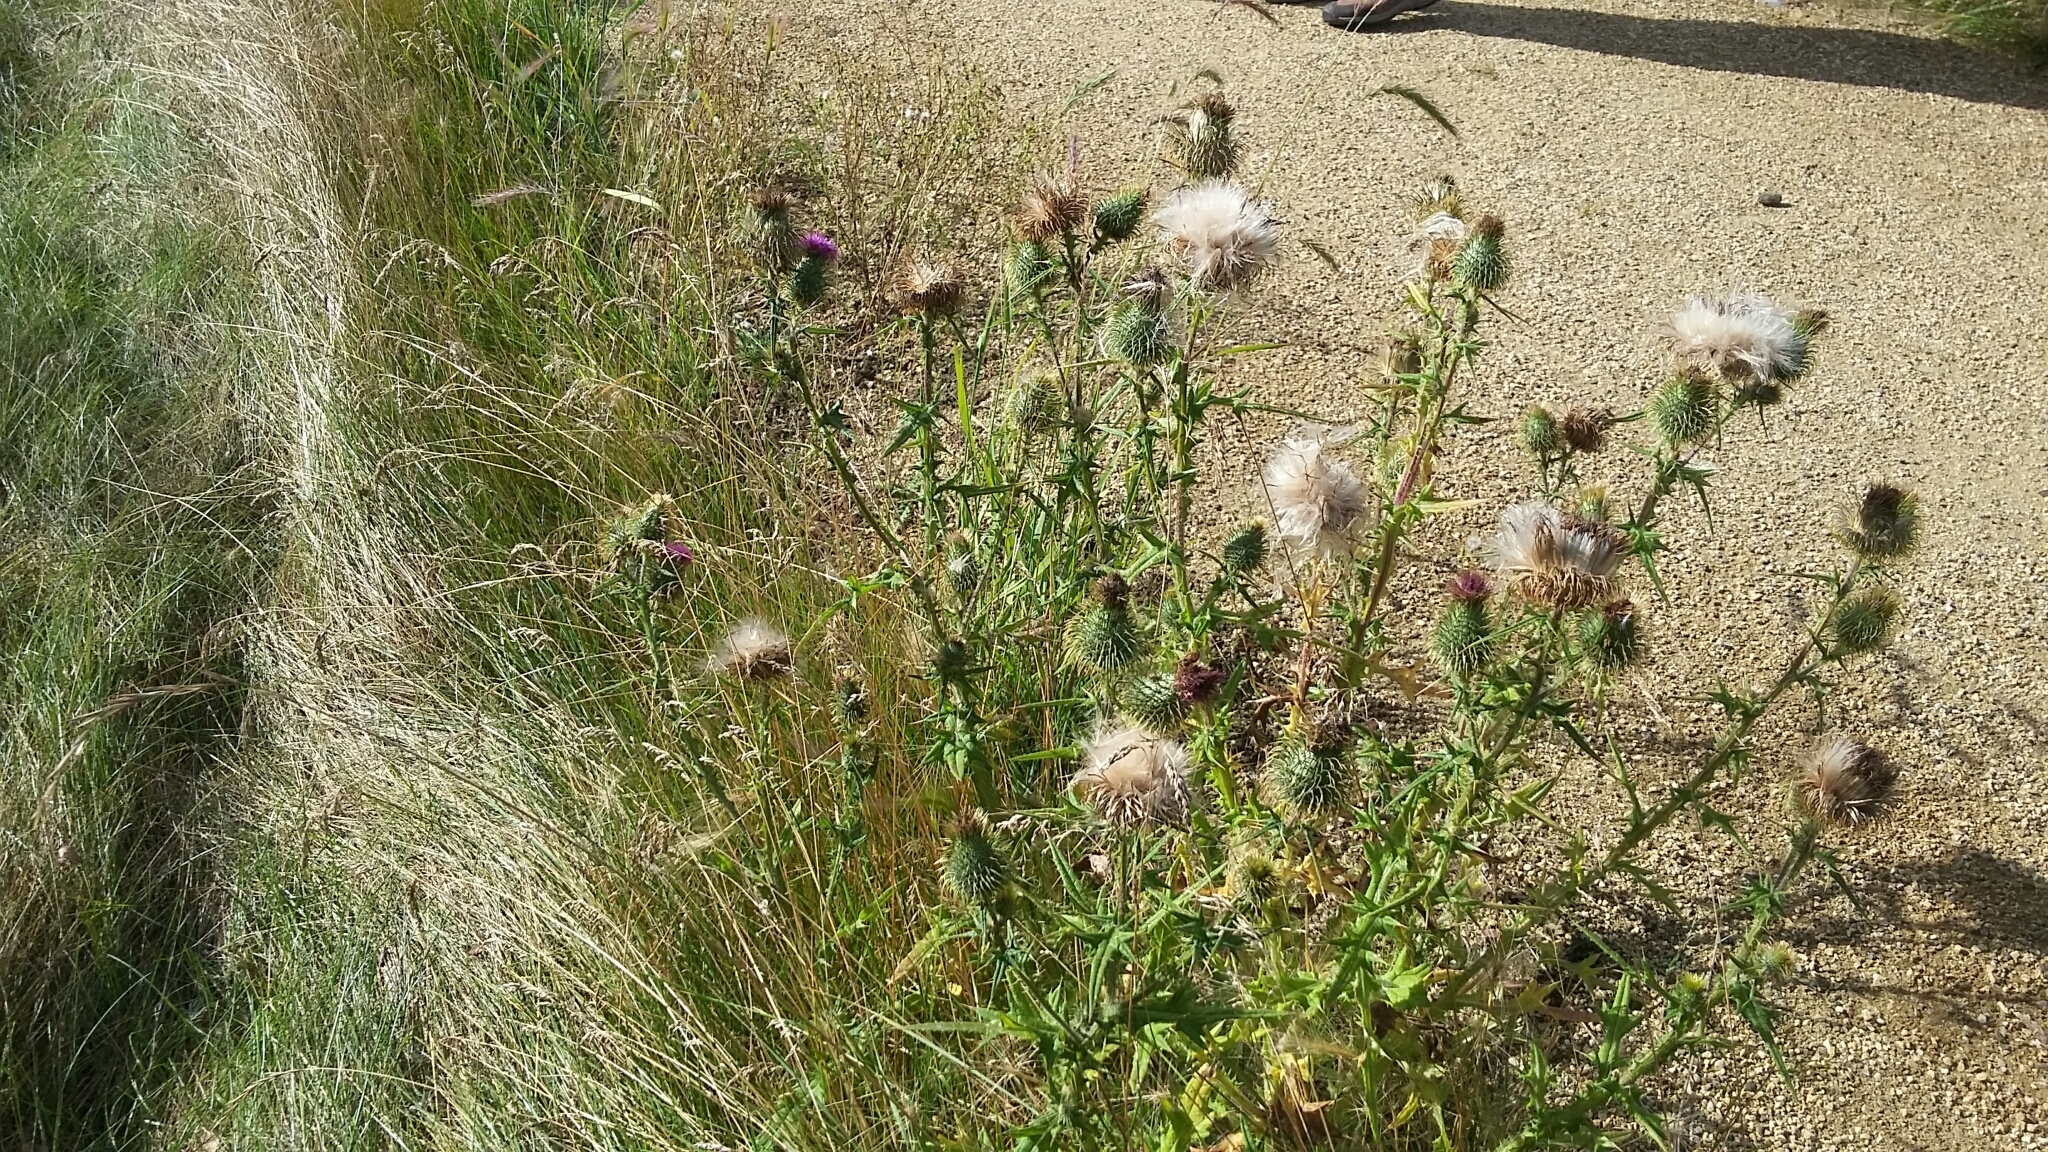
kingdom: Plantae
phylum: Tracheophyta
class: Magnoliopsida
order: Asterales
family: Asteraceae
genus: Cirsium
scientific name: Cirsium vulgare
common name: Bull thistle
